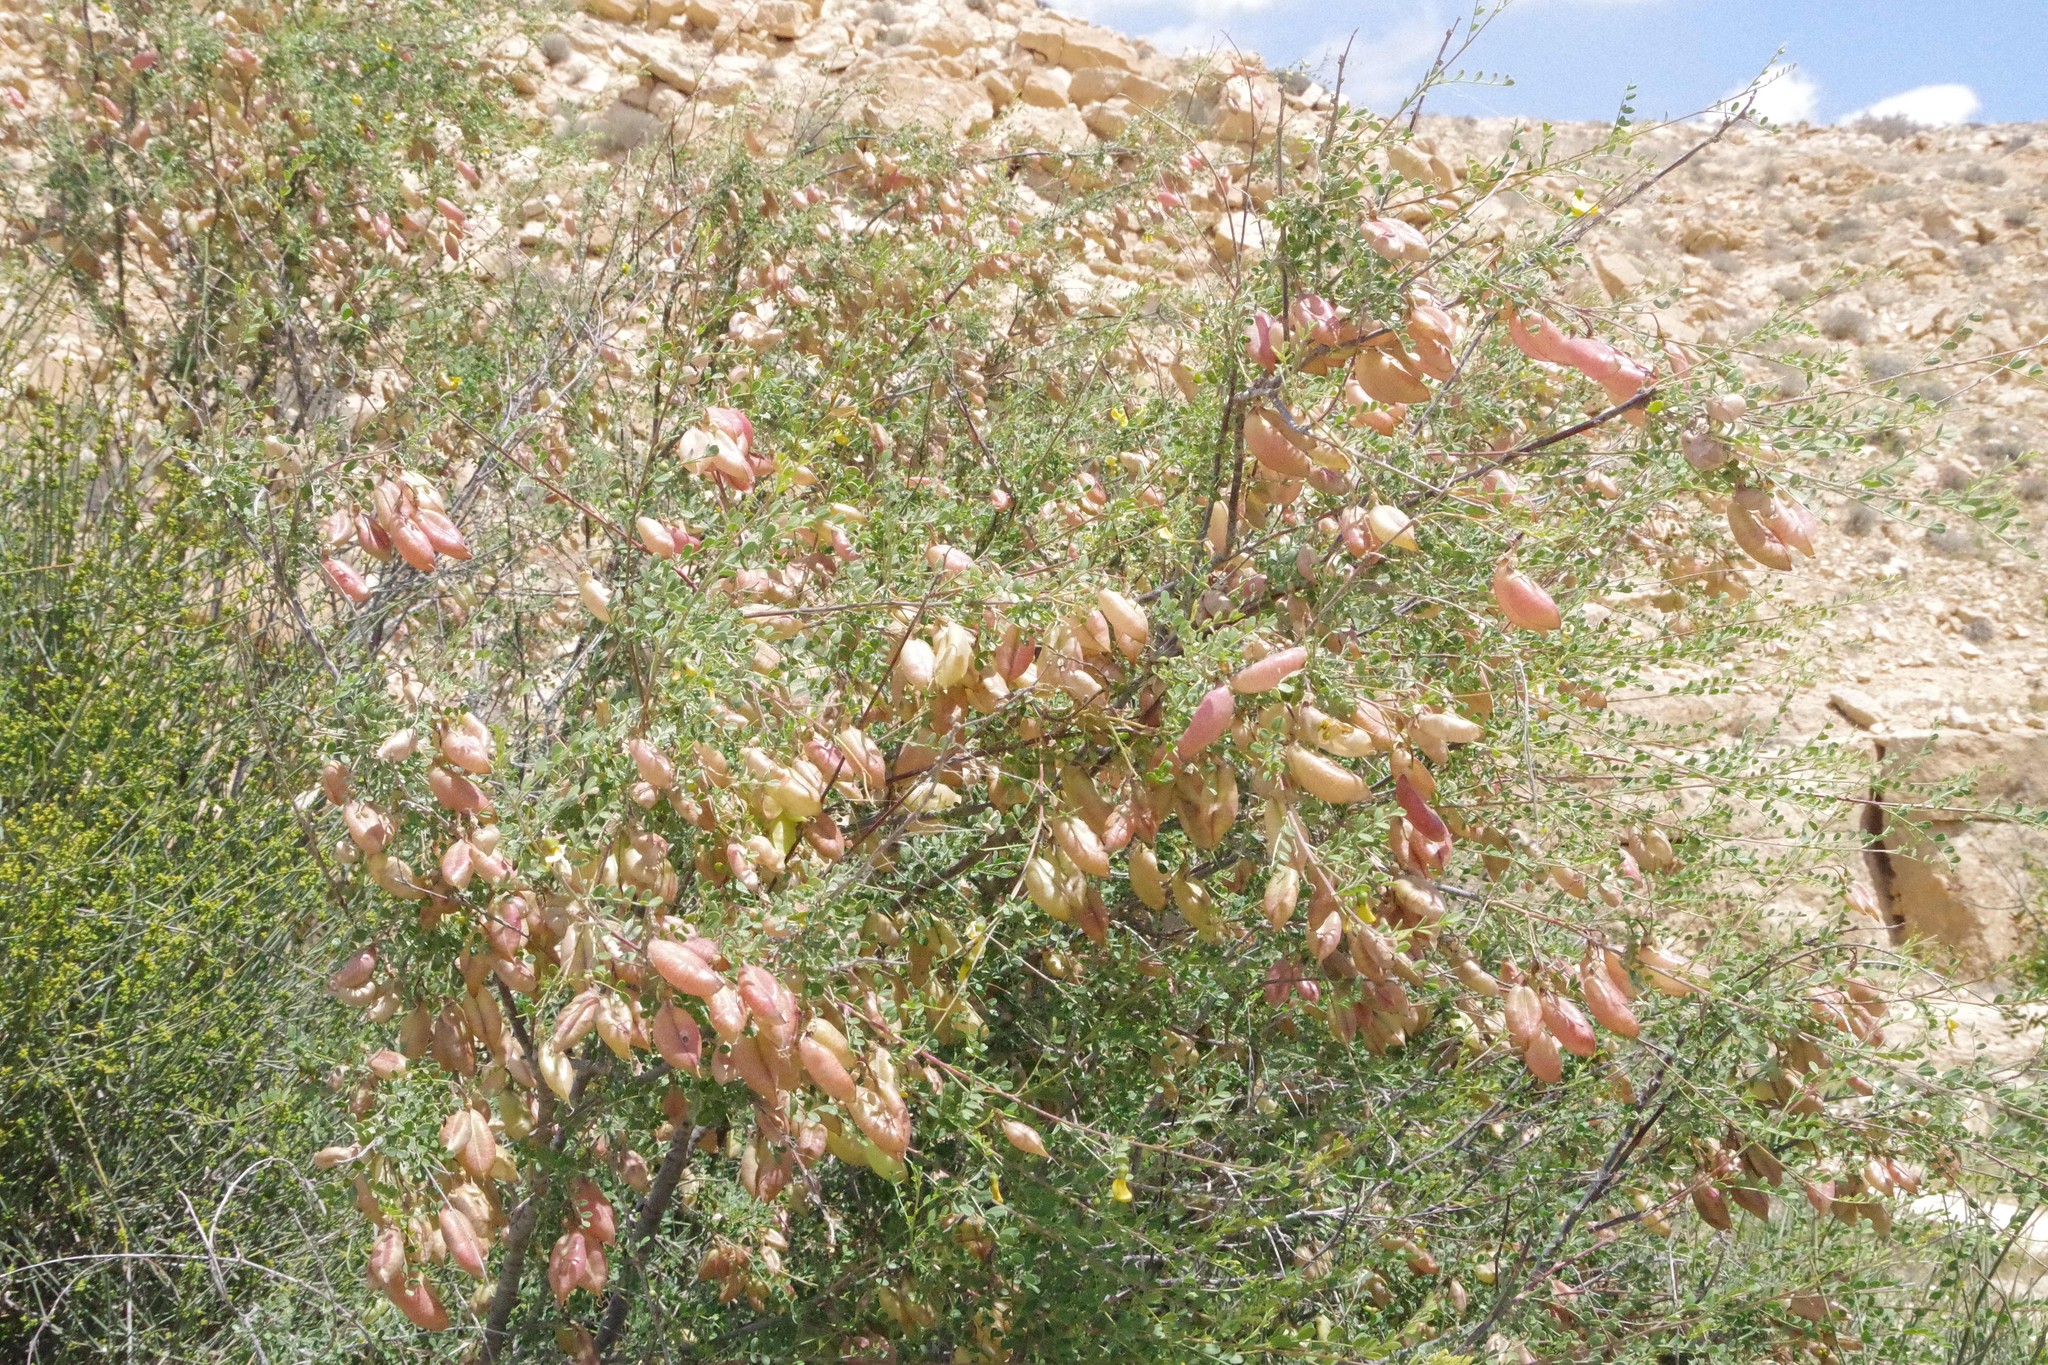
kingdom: Plantae
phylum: Tracheophyta
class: Magnoliopsida
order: Fabales
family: Fabaceae
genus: Colutea
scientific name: Colutea istria
